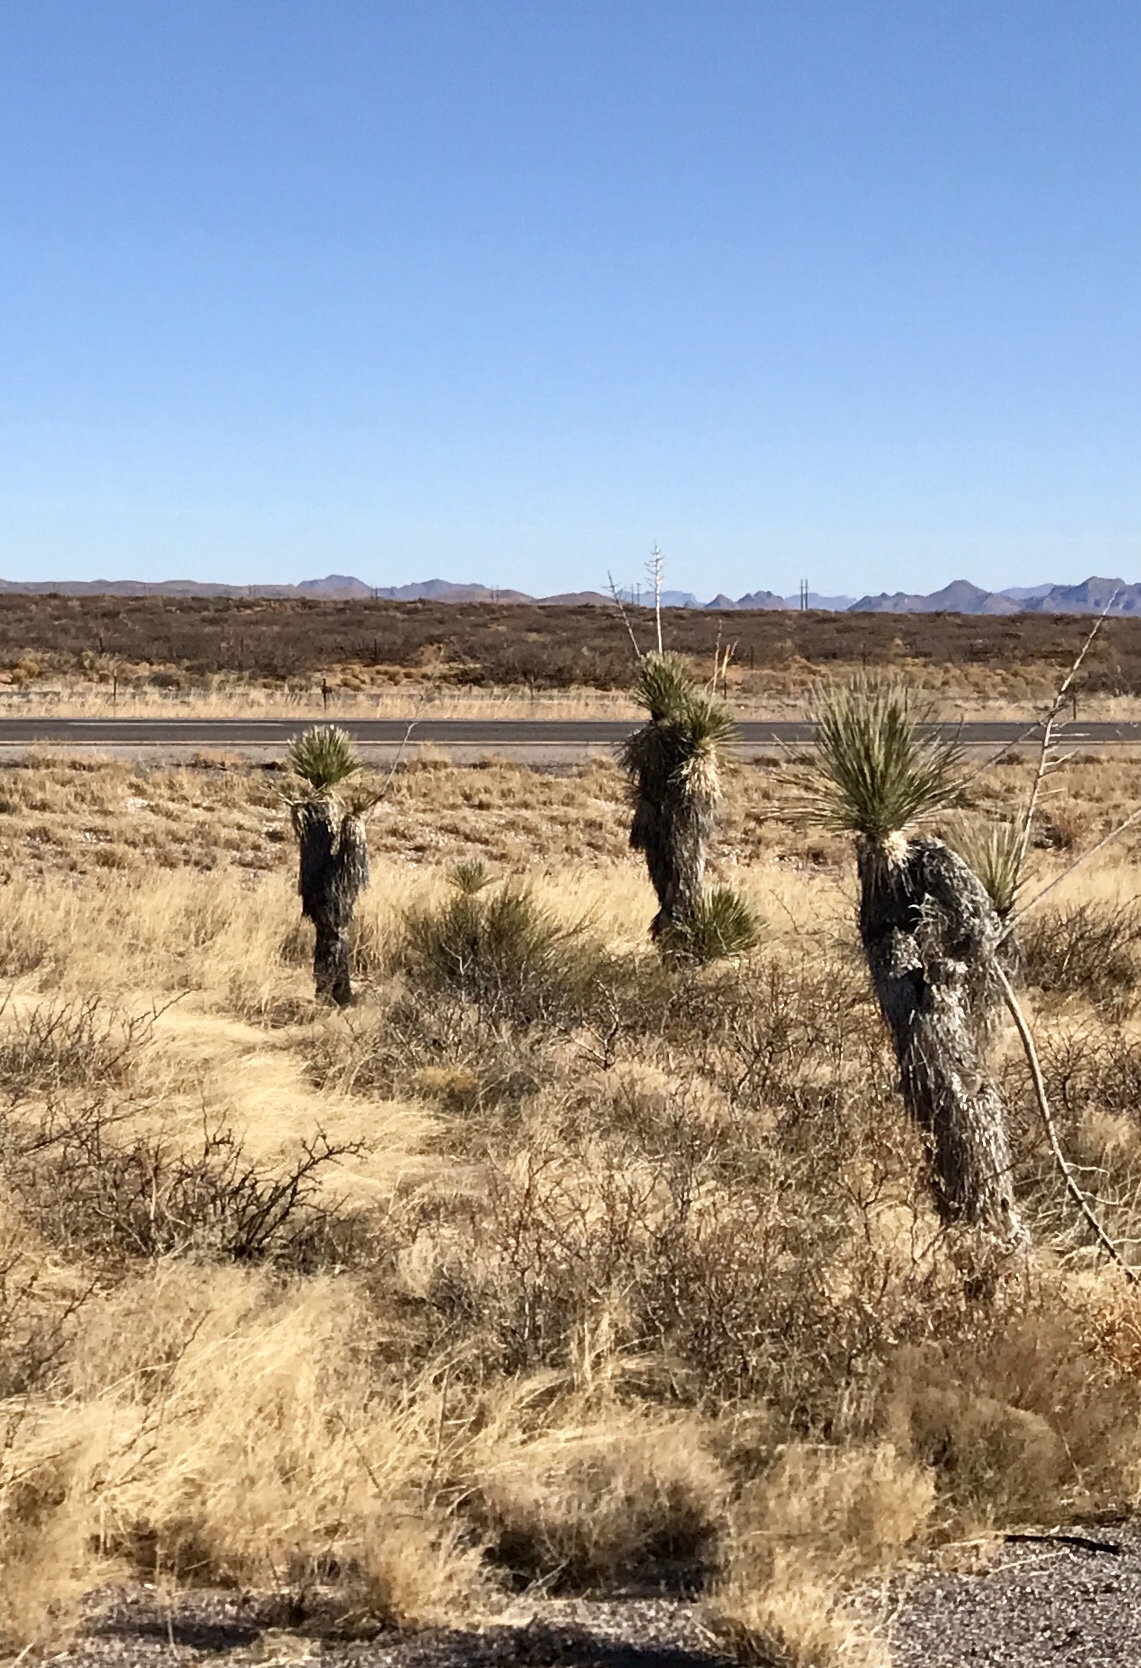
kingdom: Plantae
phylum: Tracheophyta
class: Liliopsida
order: Asparagales
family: Asparagaceae
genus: Yucca
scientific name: Yucca elata
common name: Palmella
